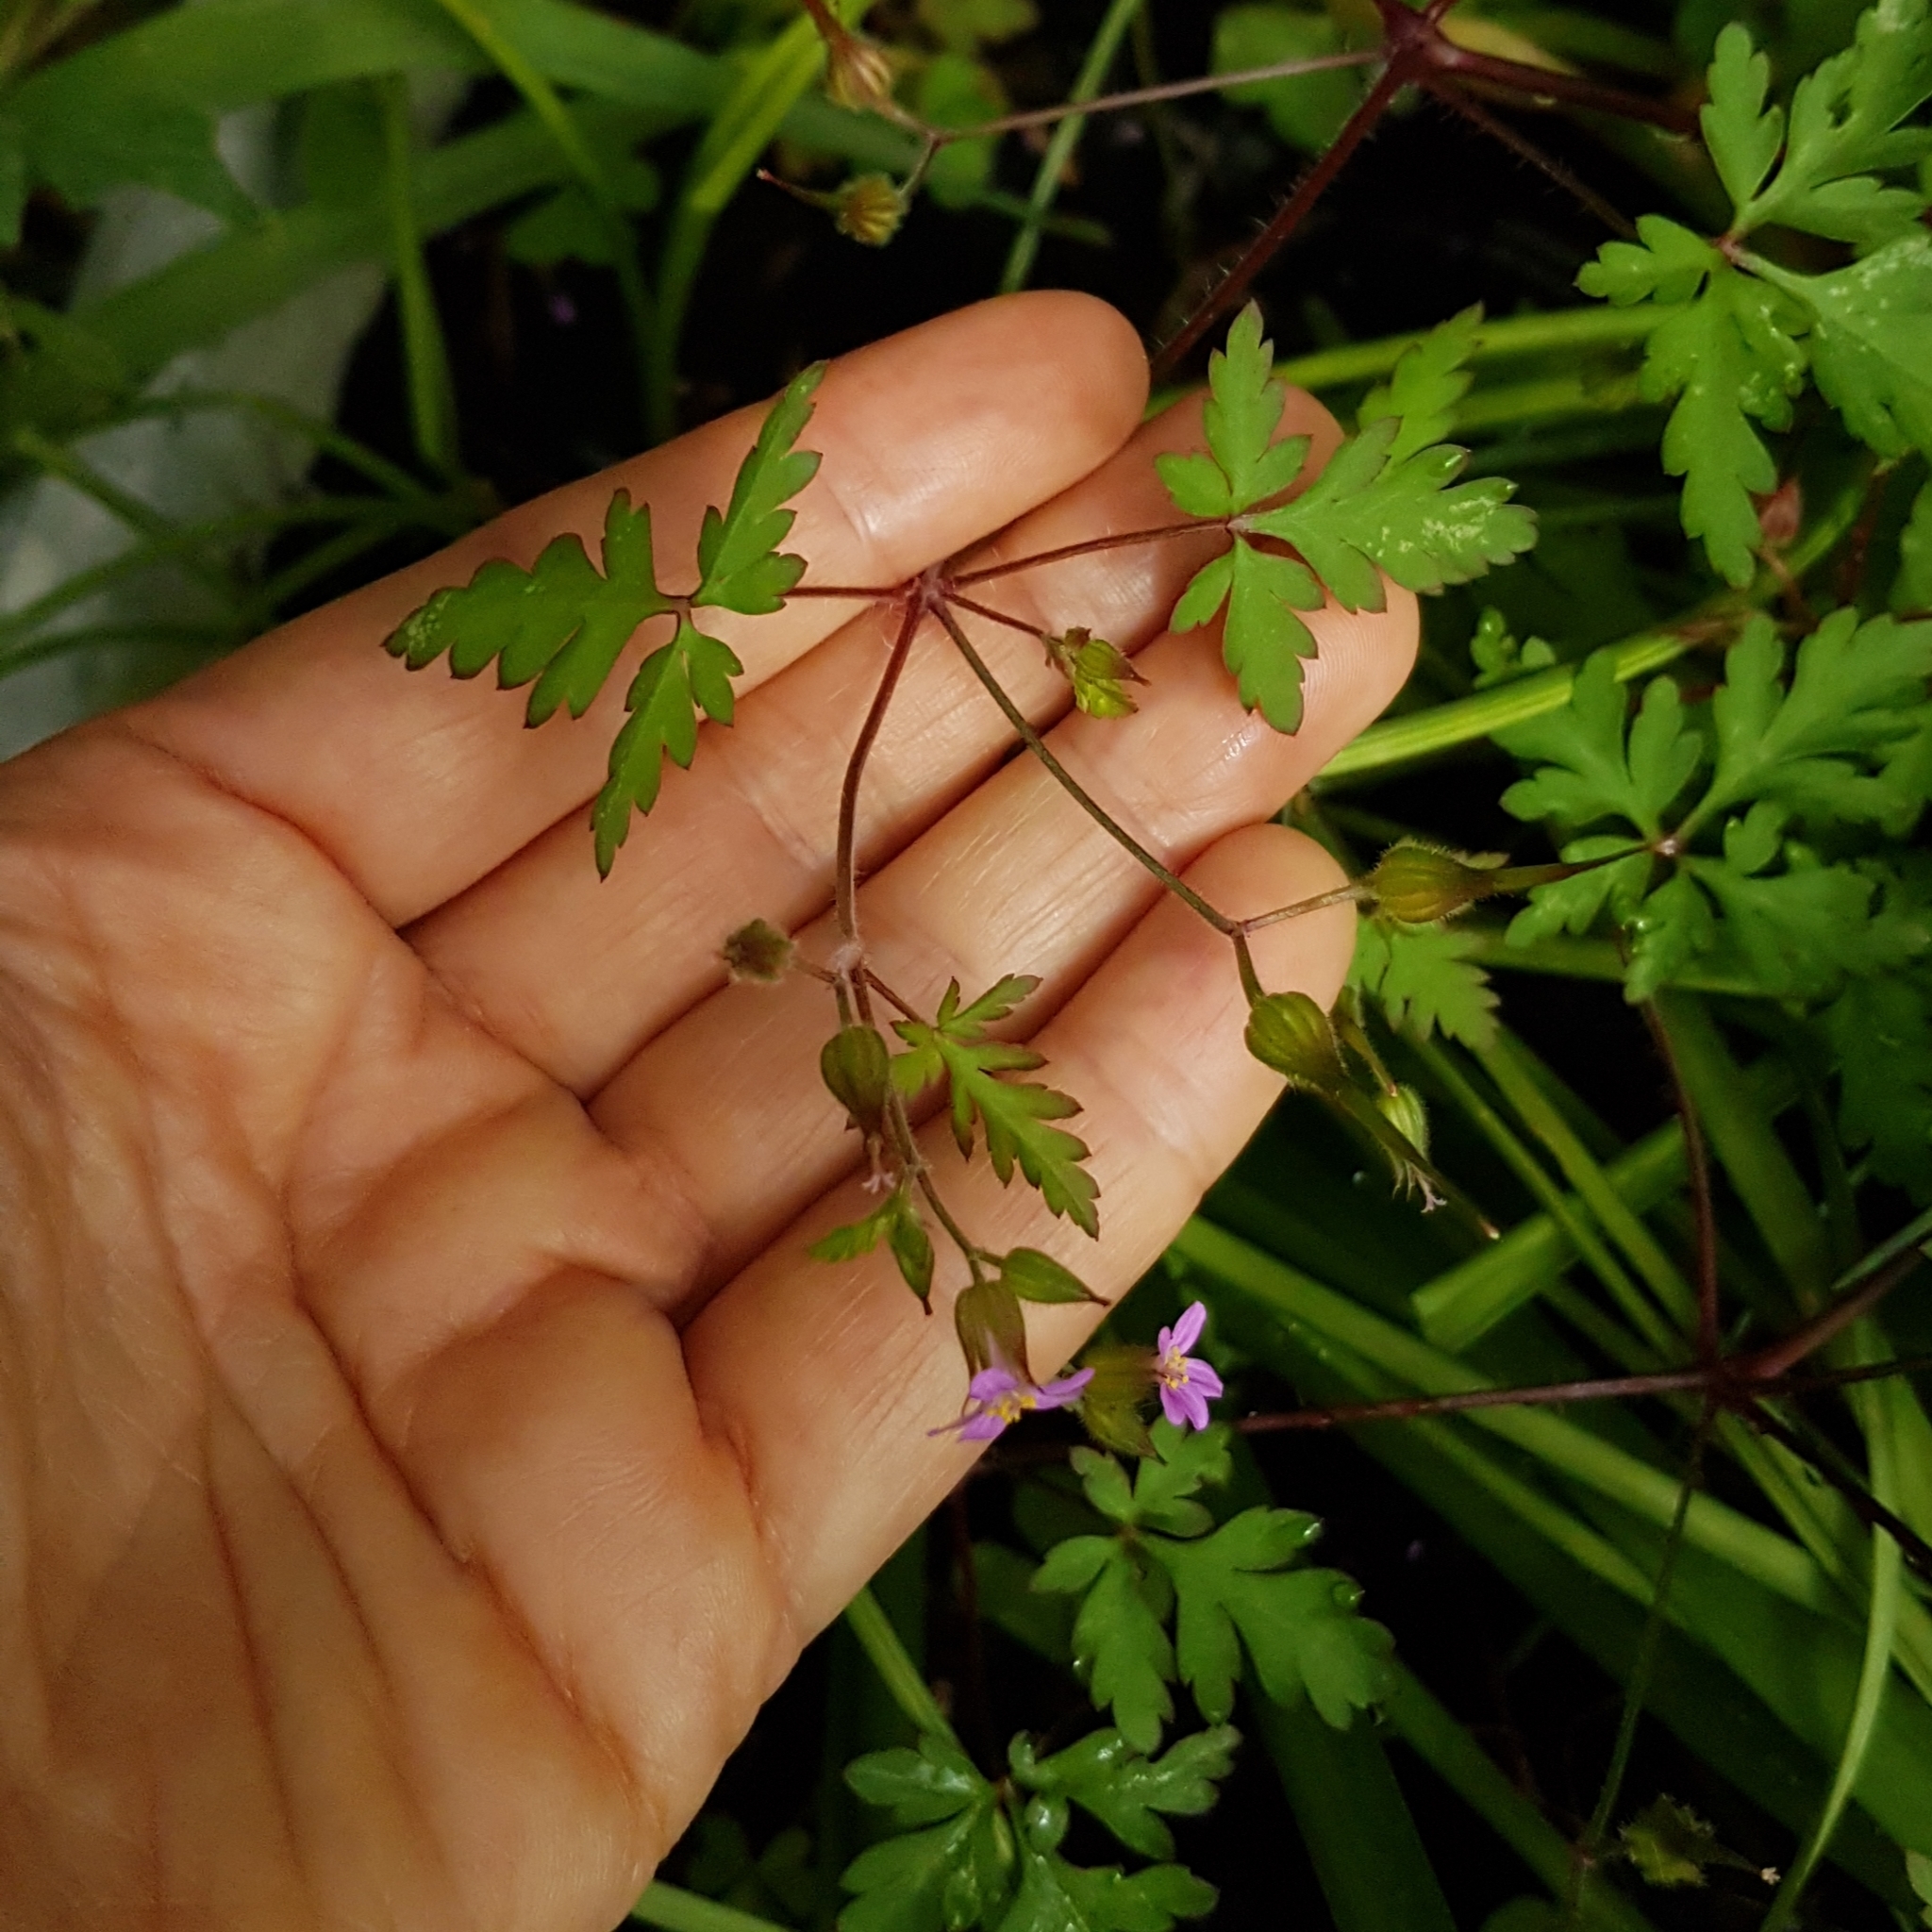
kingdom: Plantae
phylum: Tracheophyta
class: Magnoliopsida
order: Geraniales
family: Geraniaceae
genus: Geranium
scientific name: Geranium purpureum
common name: Little-robin
